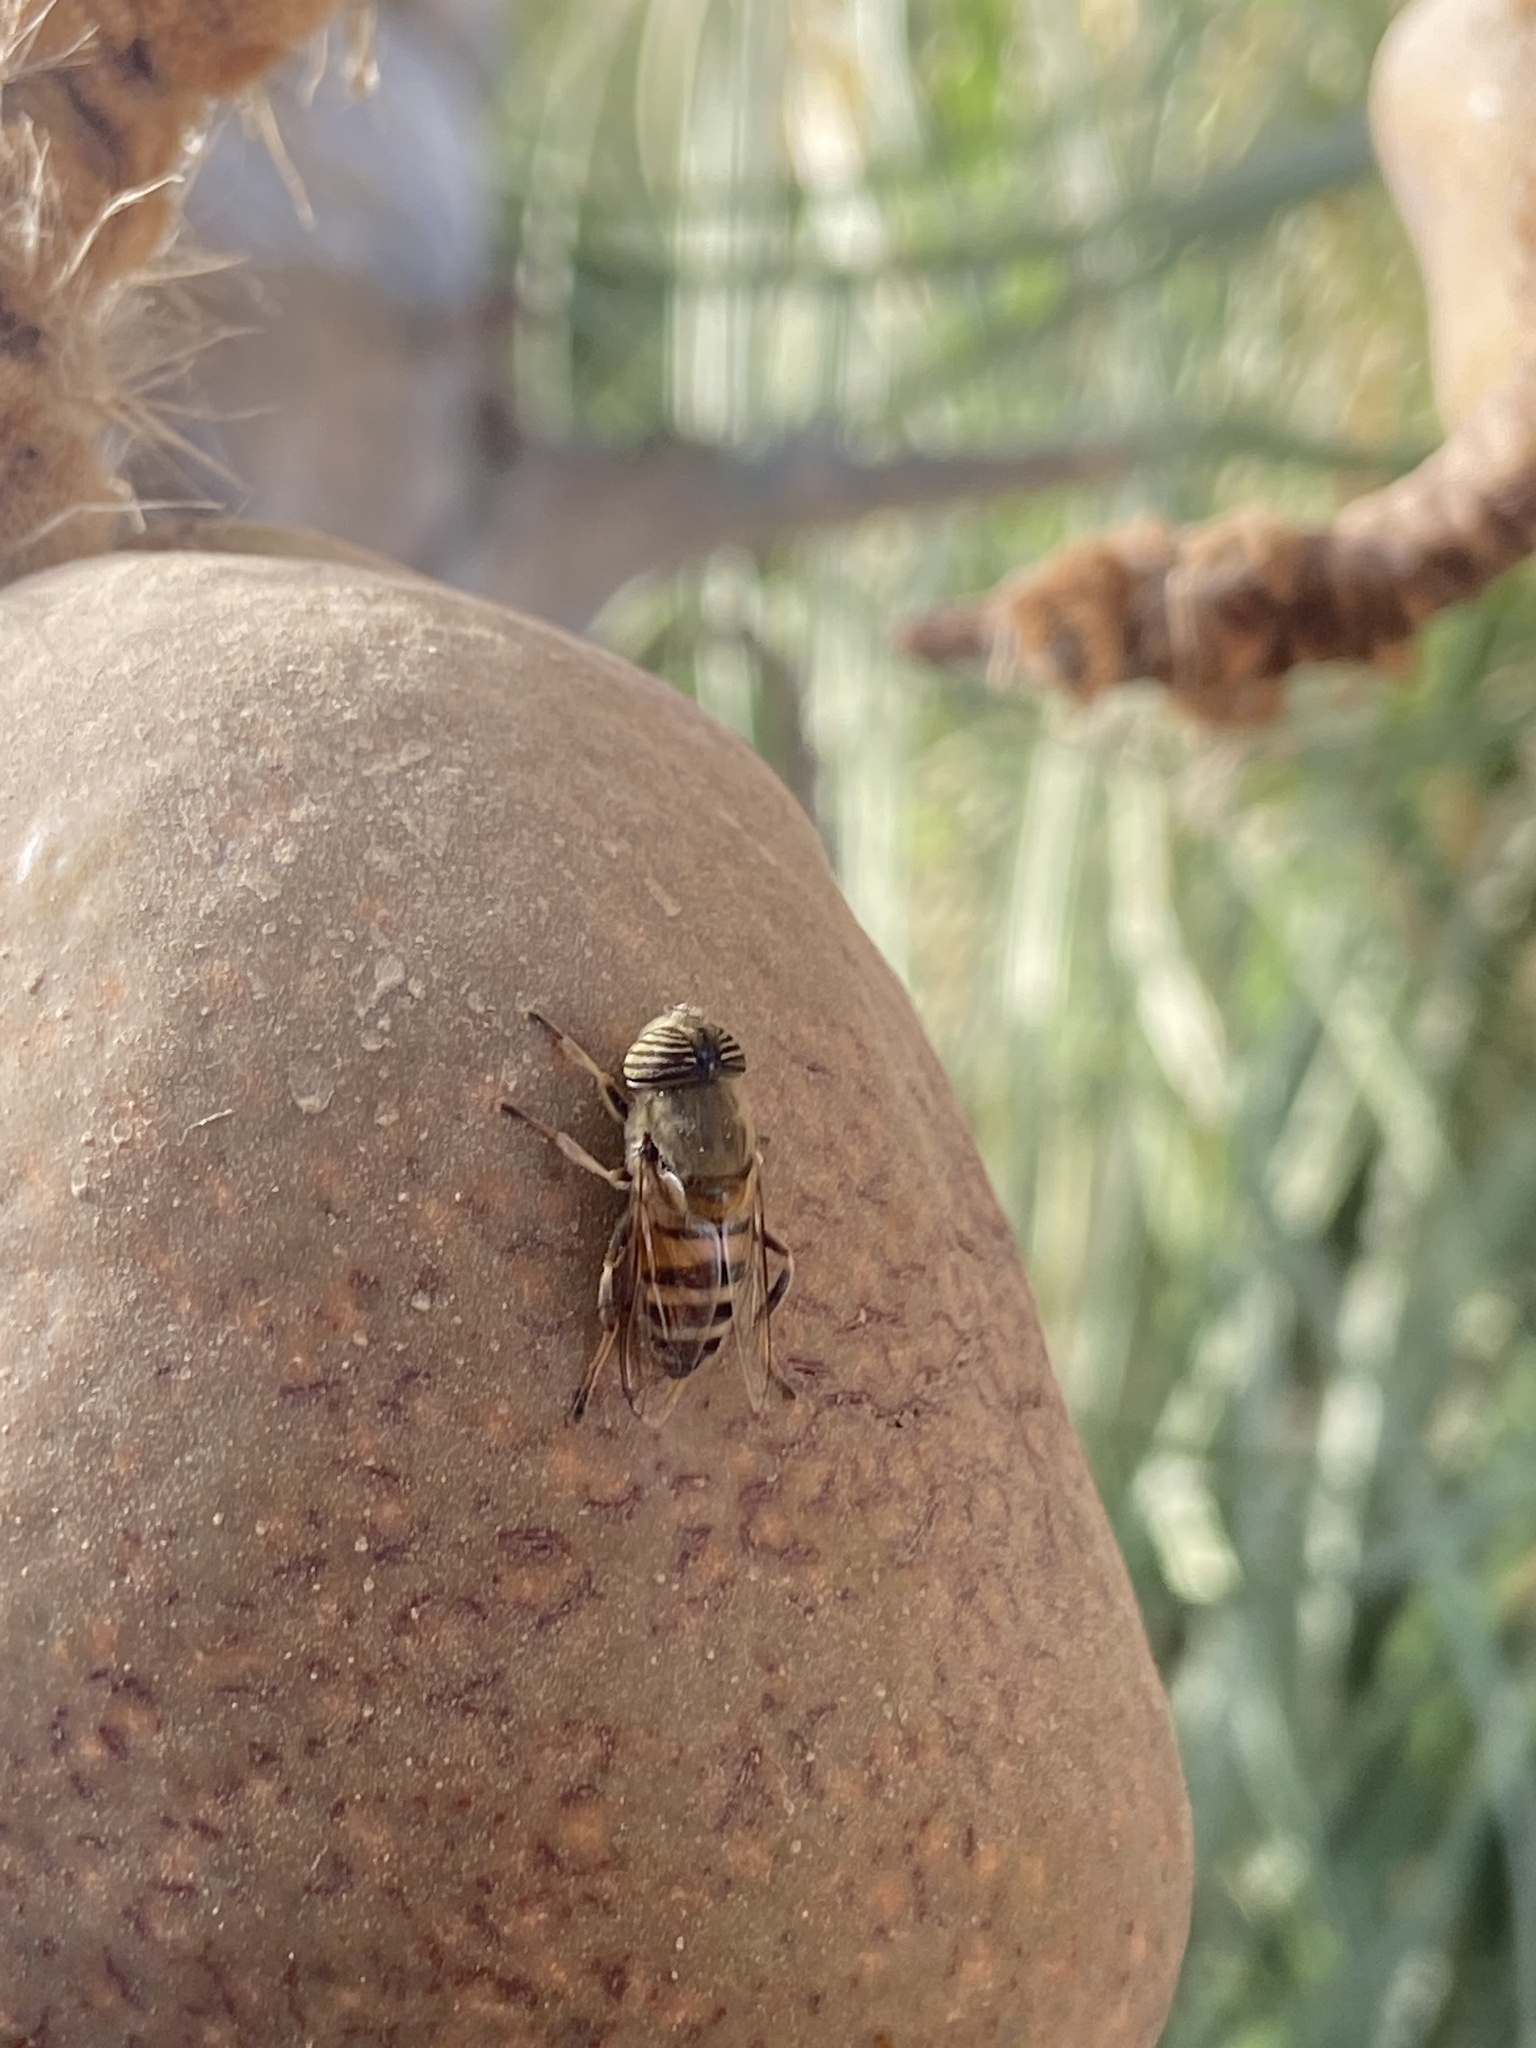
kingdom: Animalia
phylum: Arthropoda
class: Insecta
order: Diptera
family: Syrphidae
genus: Eristalinus
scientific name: Eristalinus taeniops
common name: Syrphid fly
